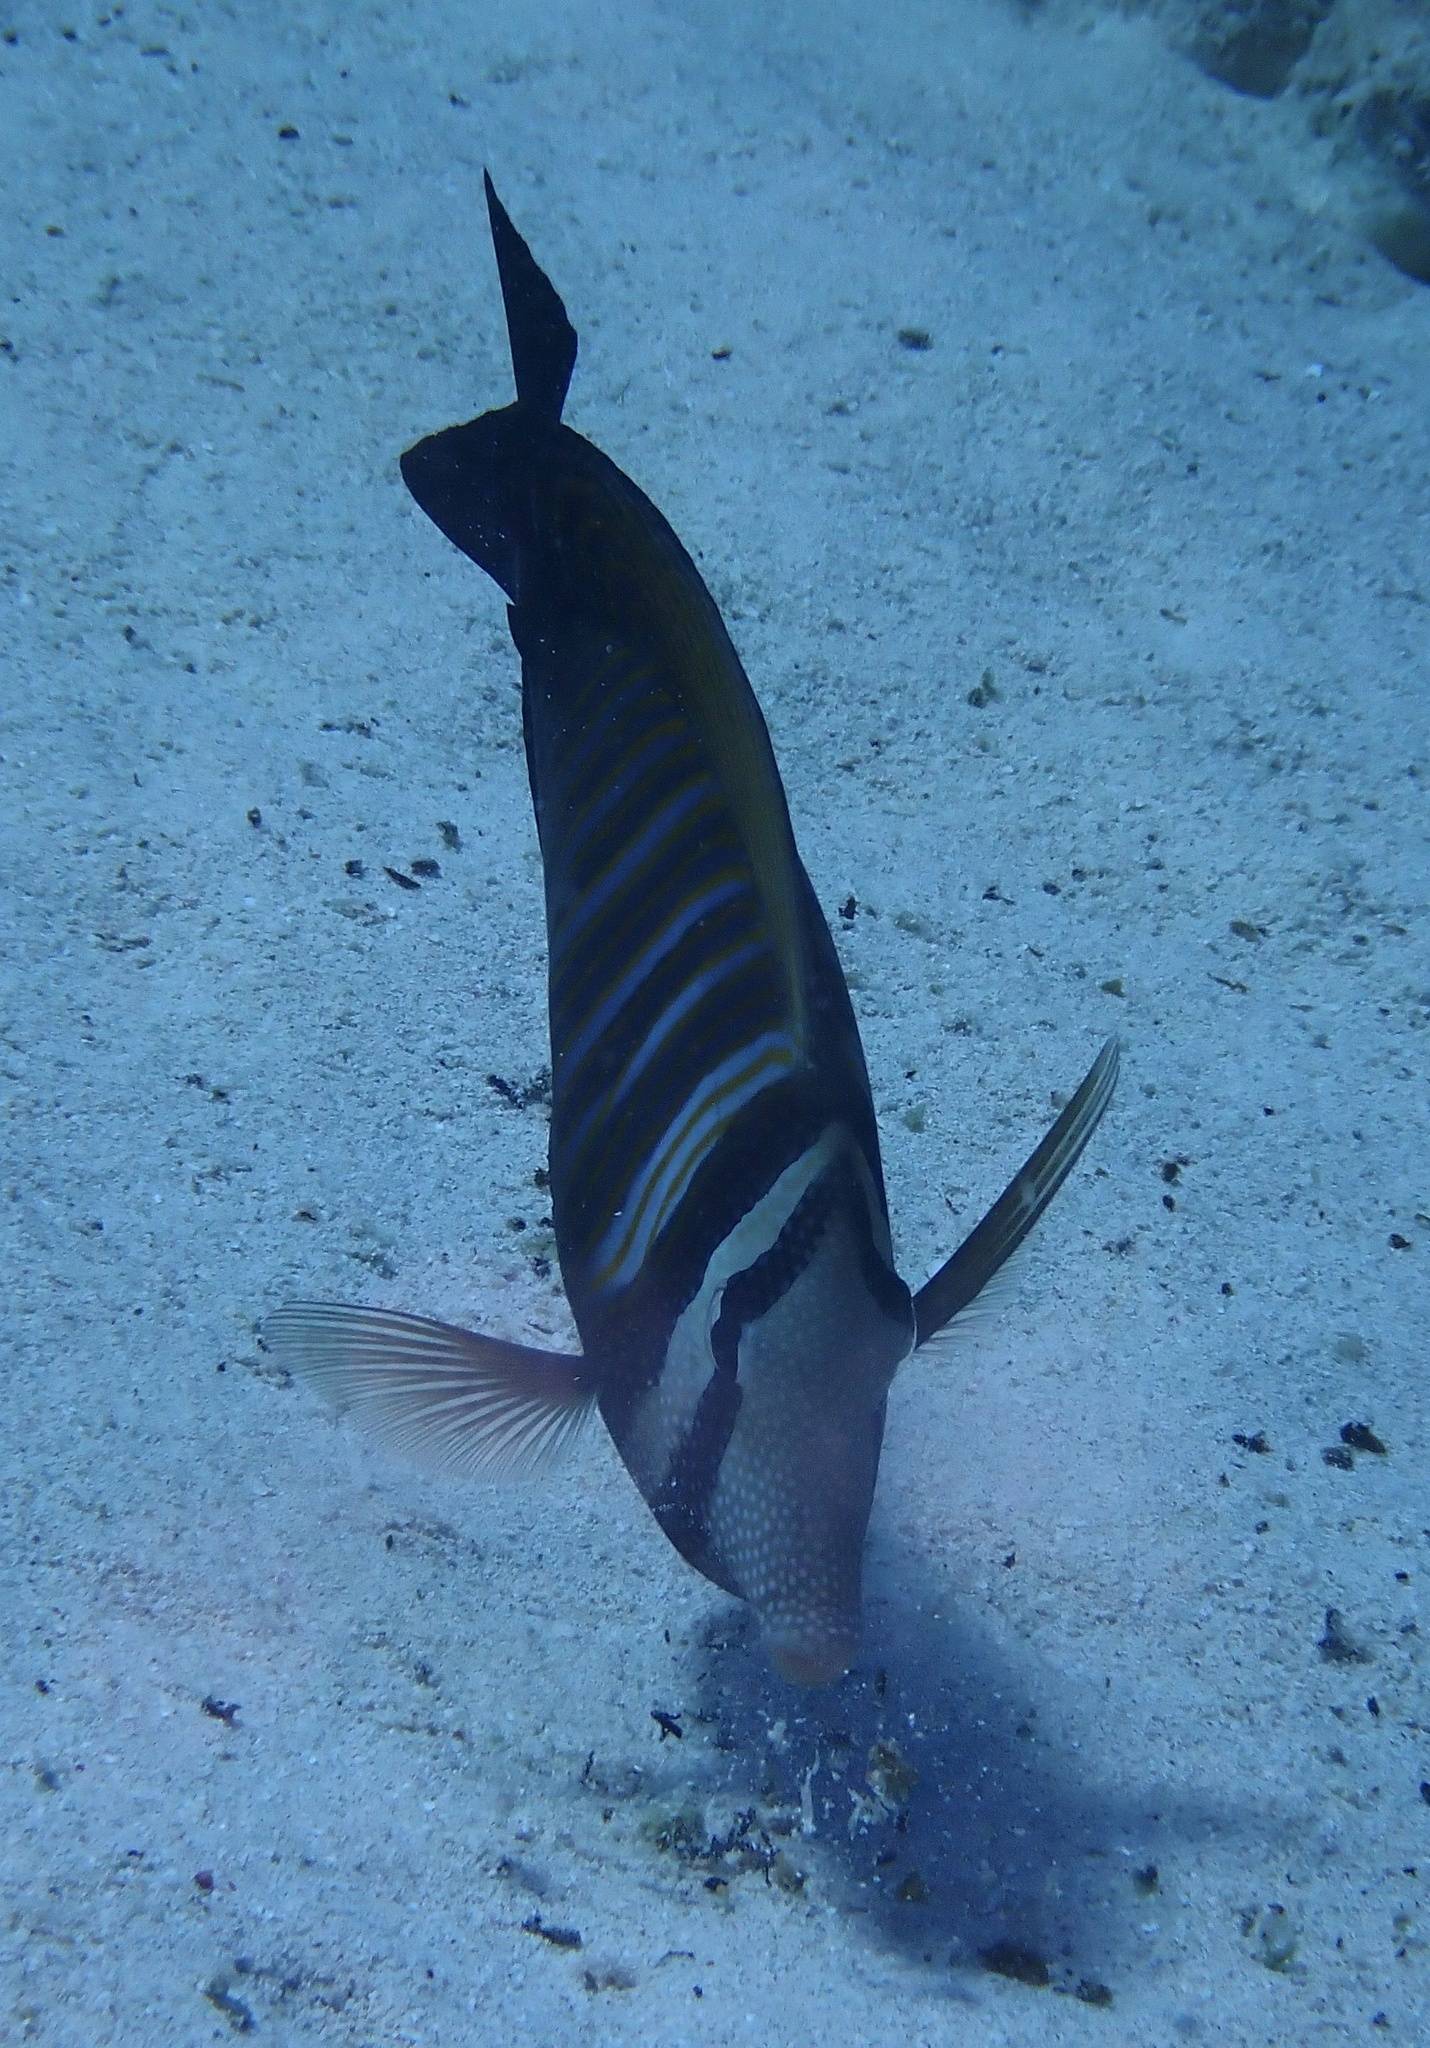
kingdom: Animalia
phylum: Chordata
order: Perciformes
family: Acanthuridae
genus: Zebrasoma
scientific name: Zebrasoma desjardinii
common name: Desjardin's sailfin tang
